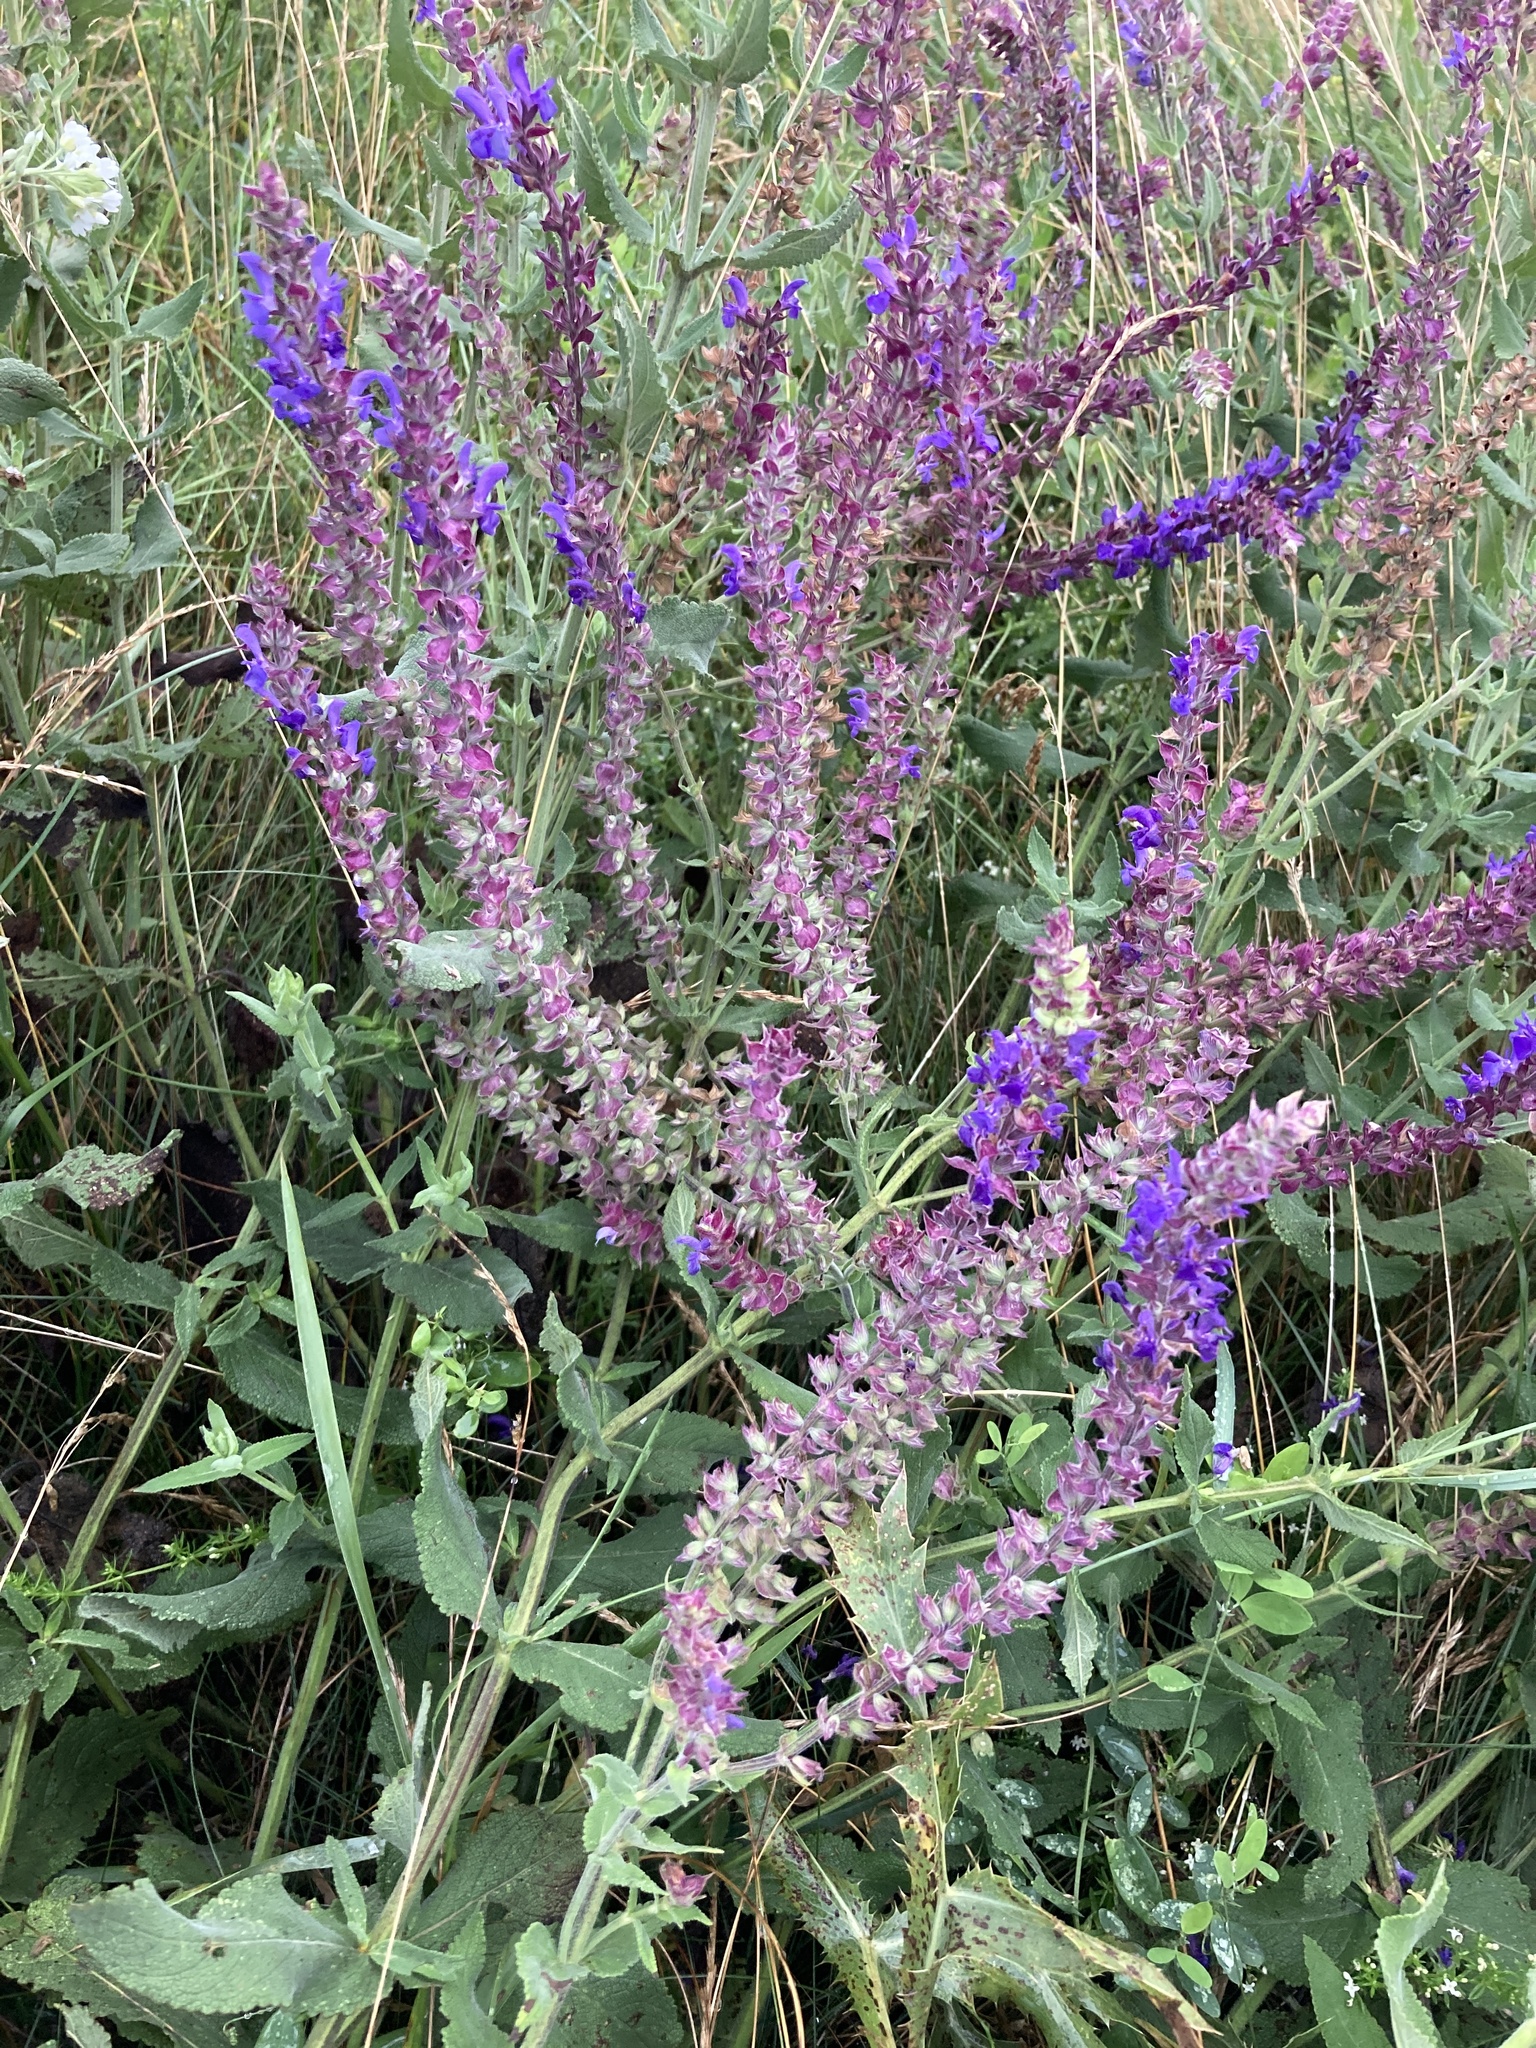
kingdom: Plantae
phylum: Tracheophyta
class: Magnoliopsida
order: Lamiales
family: Lamiaceae
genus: Salvia
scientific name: Salvia nemorosa
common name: Balkan clary
